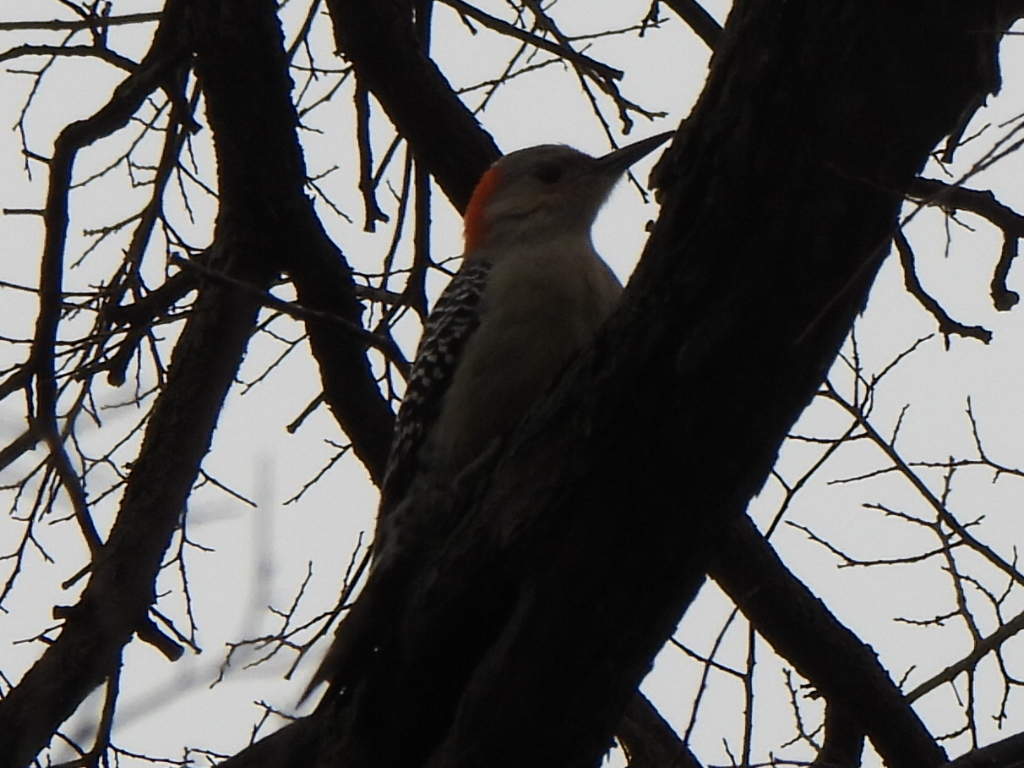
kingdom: Animalia
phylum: Chordata
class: Aves
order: Piciformes
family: Picidae
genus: Melanerpes
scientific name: Melanerpes carolinus
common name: Red-bellied woodpecker
